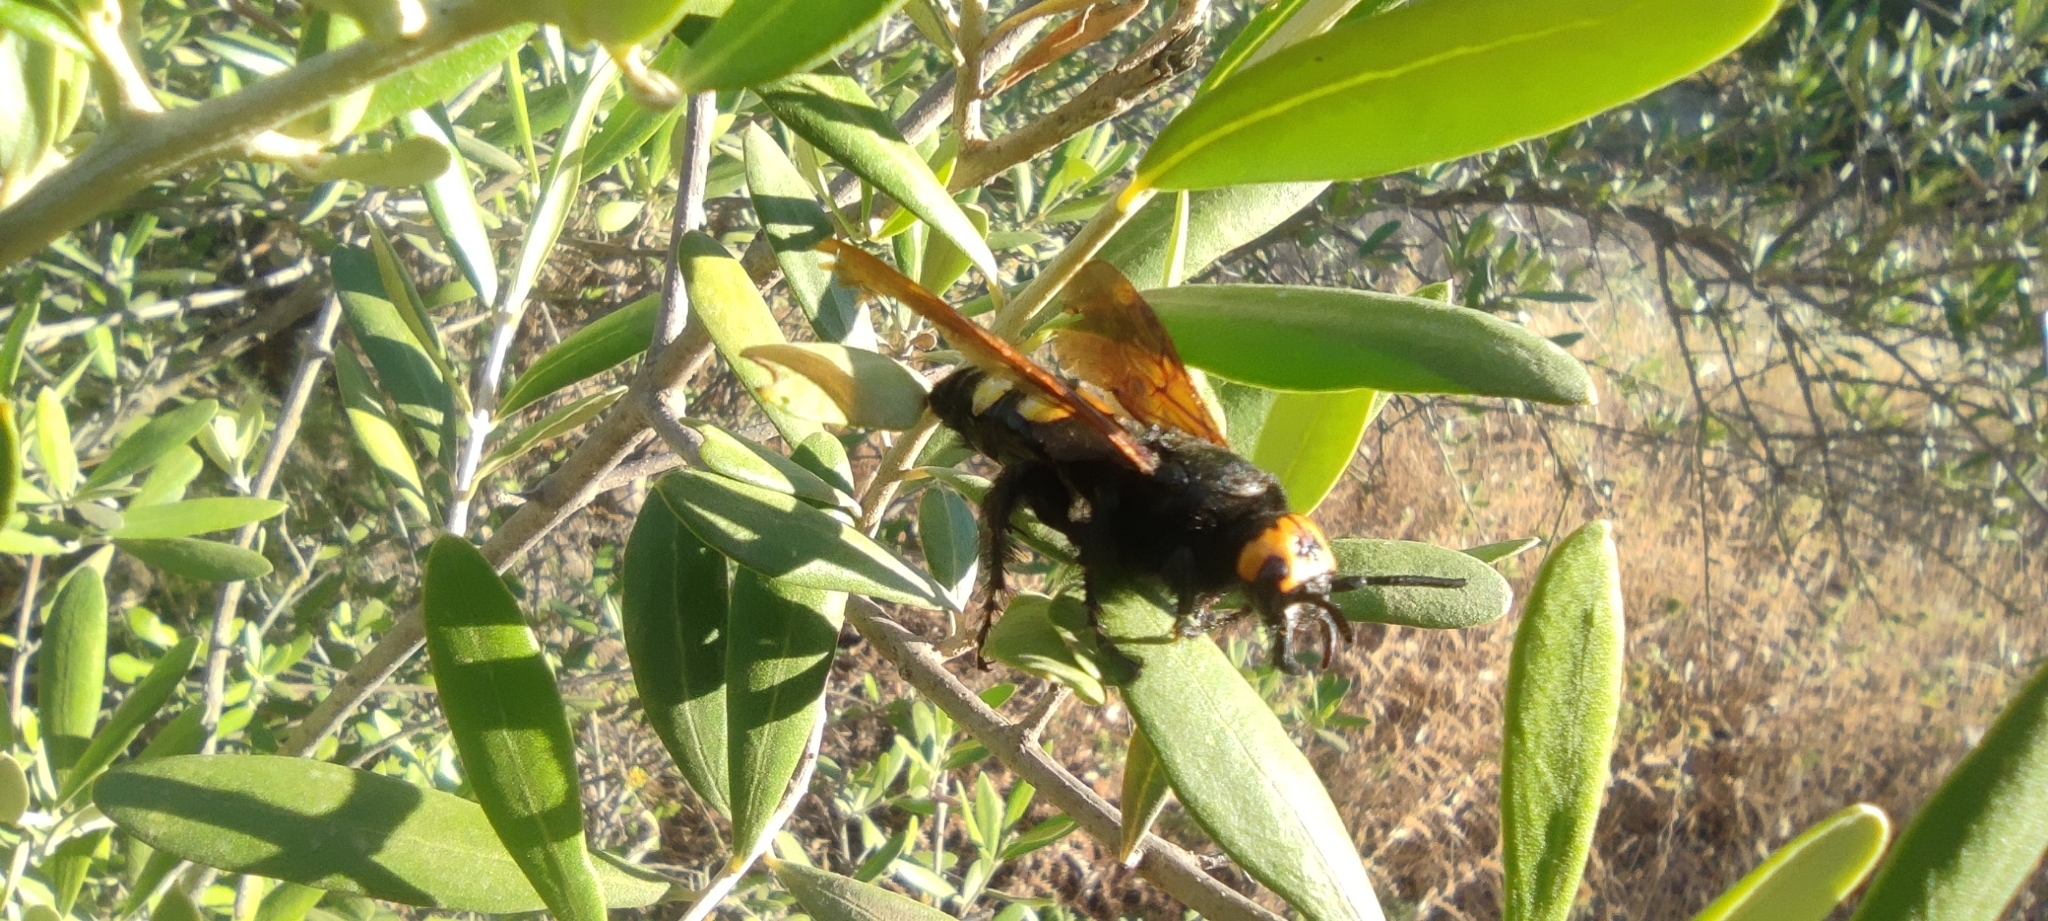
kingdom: Animalia
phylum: Arthropoda
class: Insecta
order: Hymenoptera
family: Scoliidae
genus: Megascolia
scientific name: Megascolia maculata
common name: Mammoth wasp
